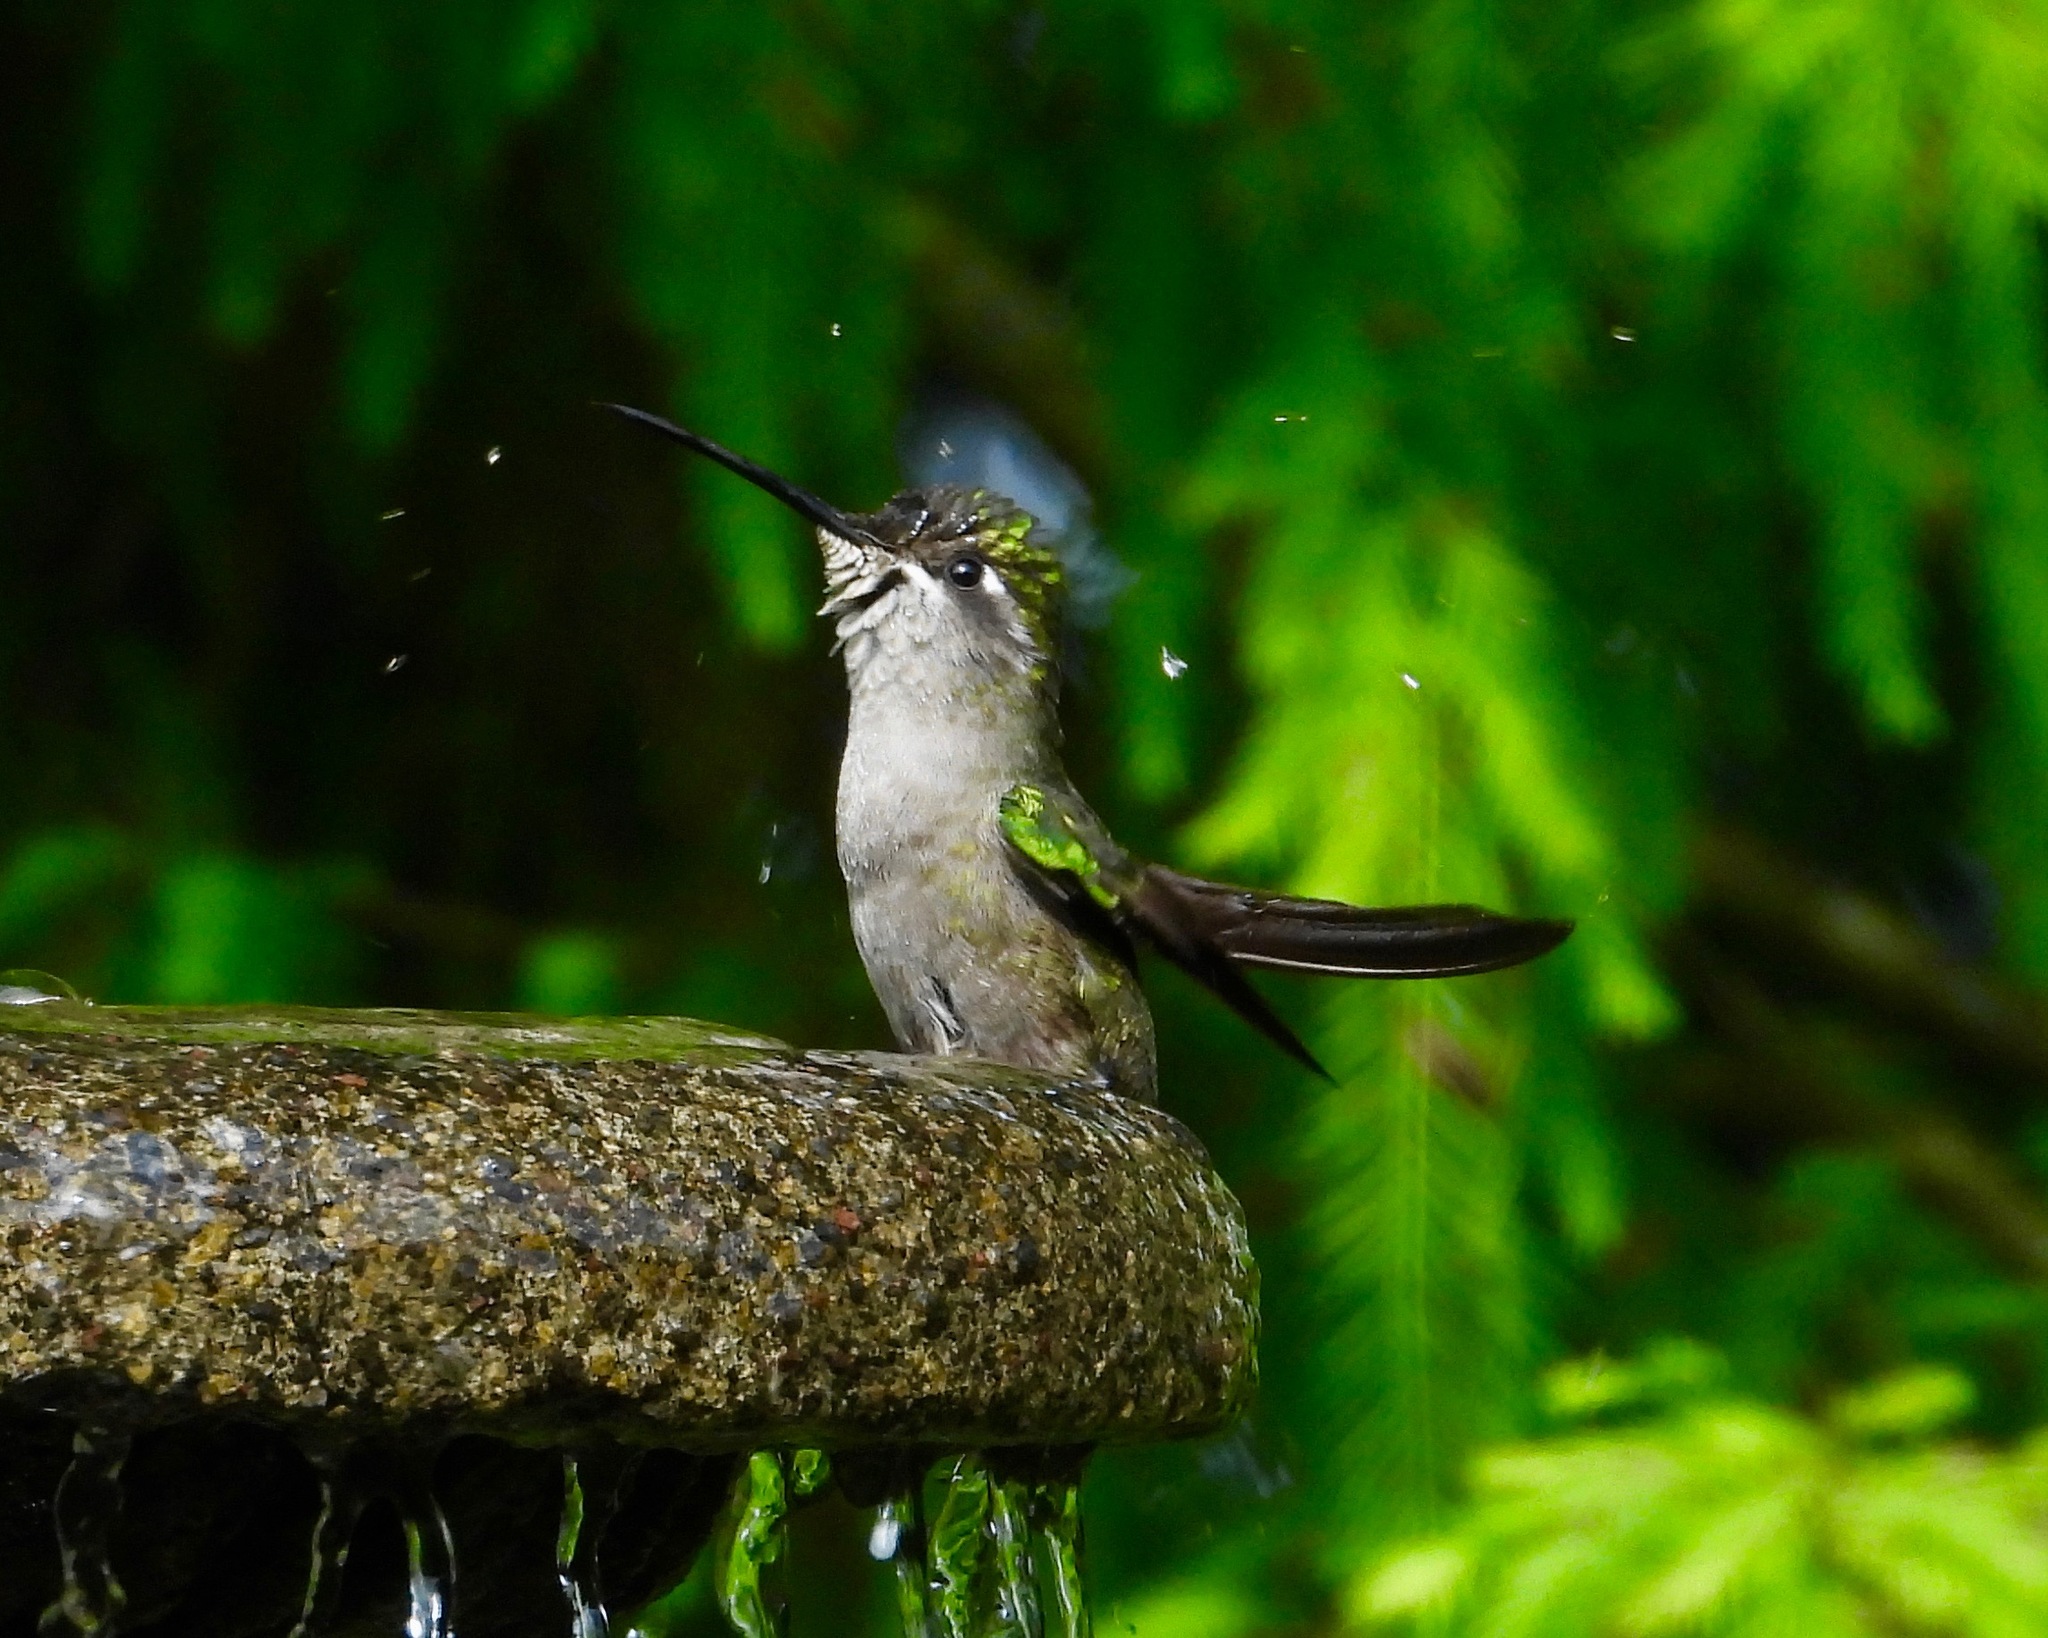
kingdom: Animalia
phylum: Chordata
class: Aves
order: Apodiformes
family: Trochilidae
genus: Eugenes
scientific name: Eugenes fulgens
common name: Magnificent hummingbird
